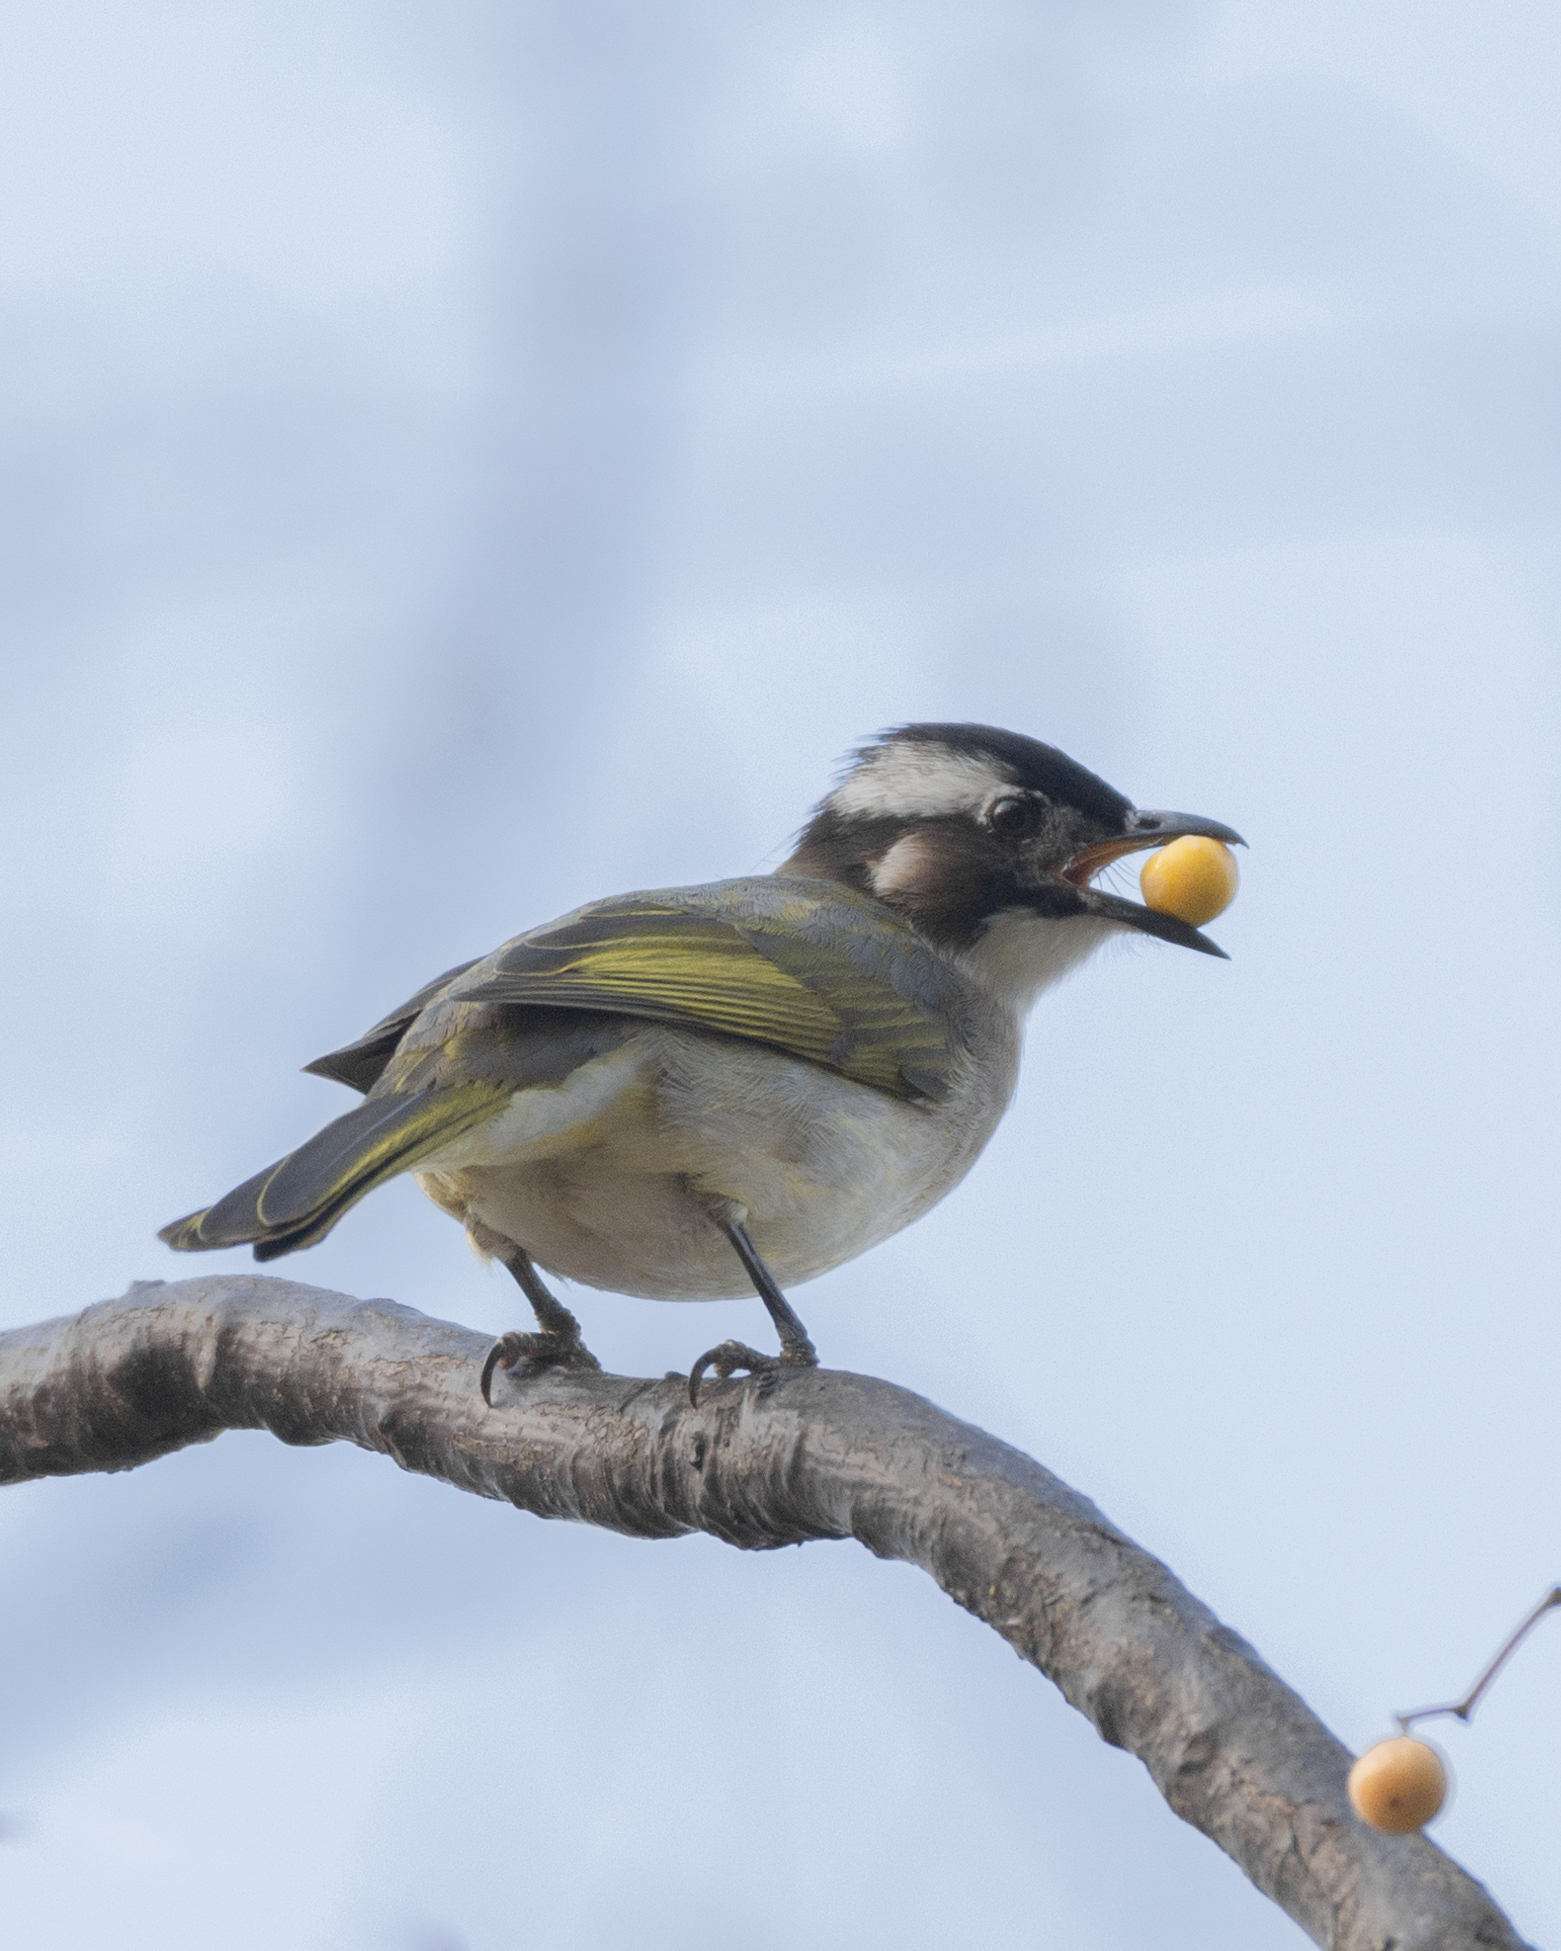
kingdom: Animalia
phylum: Chordata
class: Aves
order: Passeriformes
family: Pycnonotidae
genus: Pycnonotus
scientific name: Pycnonotus sinensis
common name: Light-vented bulbul
